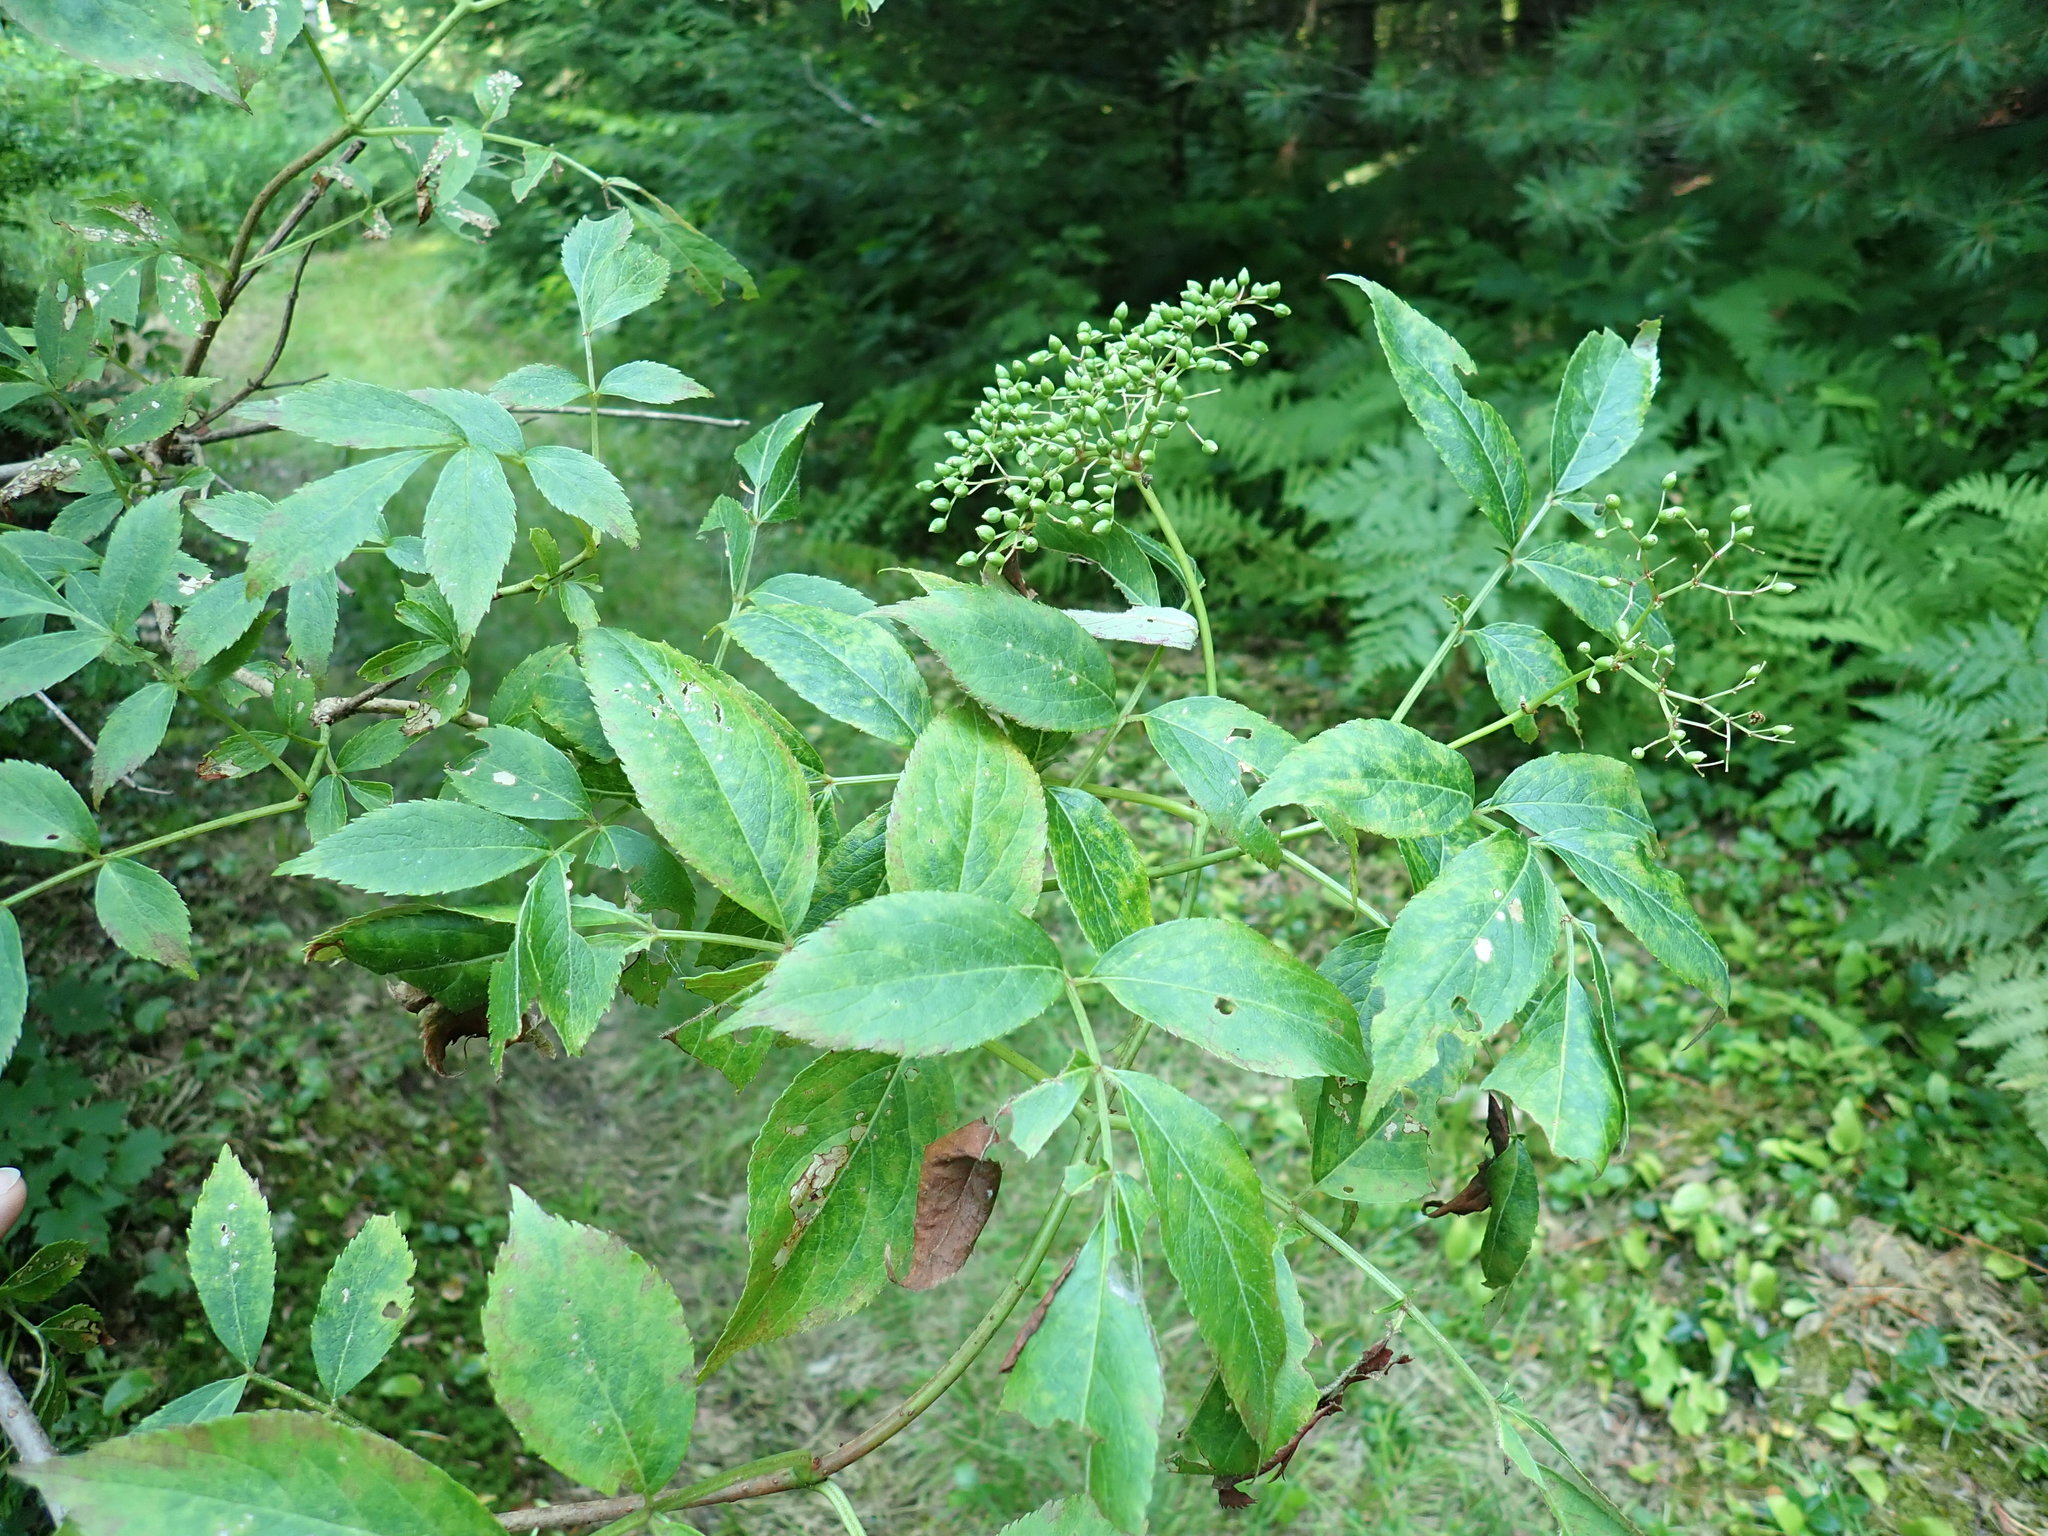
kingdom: Plantae
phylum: Tracheophyta
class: Magnoliopsida
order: Dipsacales
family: Viburnaceae
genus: Sambucus
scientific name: Sambucus canadensis
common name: American elder
